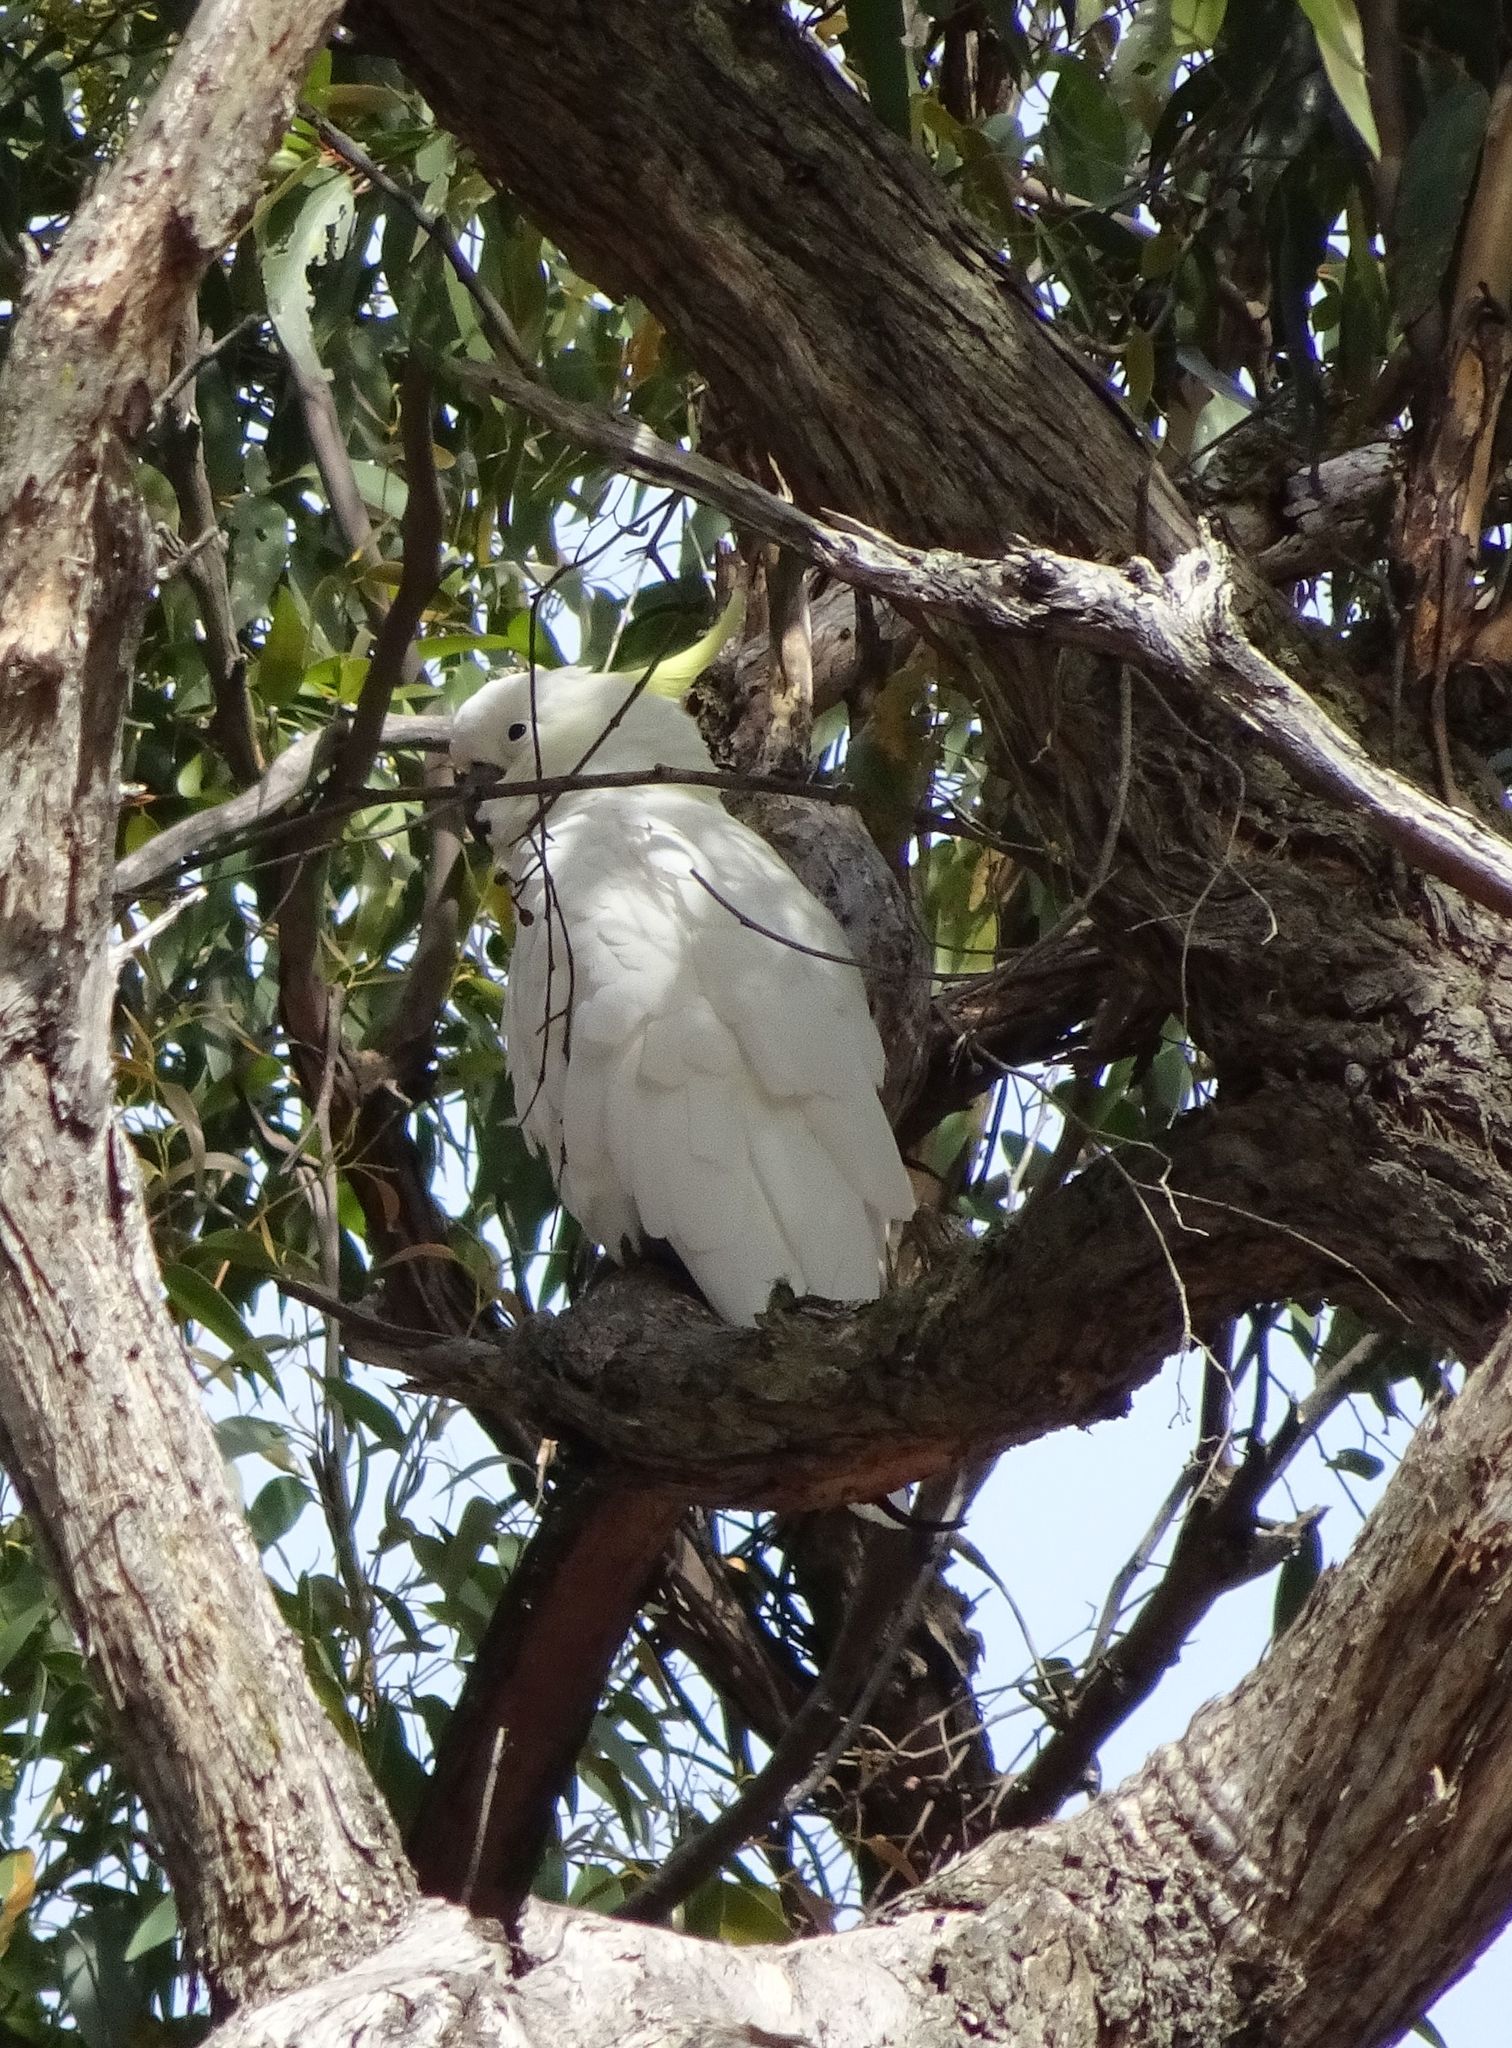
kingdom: Animalia
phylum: Chordata
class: Aves
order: Psittaciformes
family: Psittacidae
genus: Cacatua
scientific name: Cacatua galerita
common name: Sulphur-crested cockatoo
